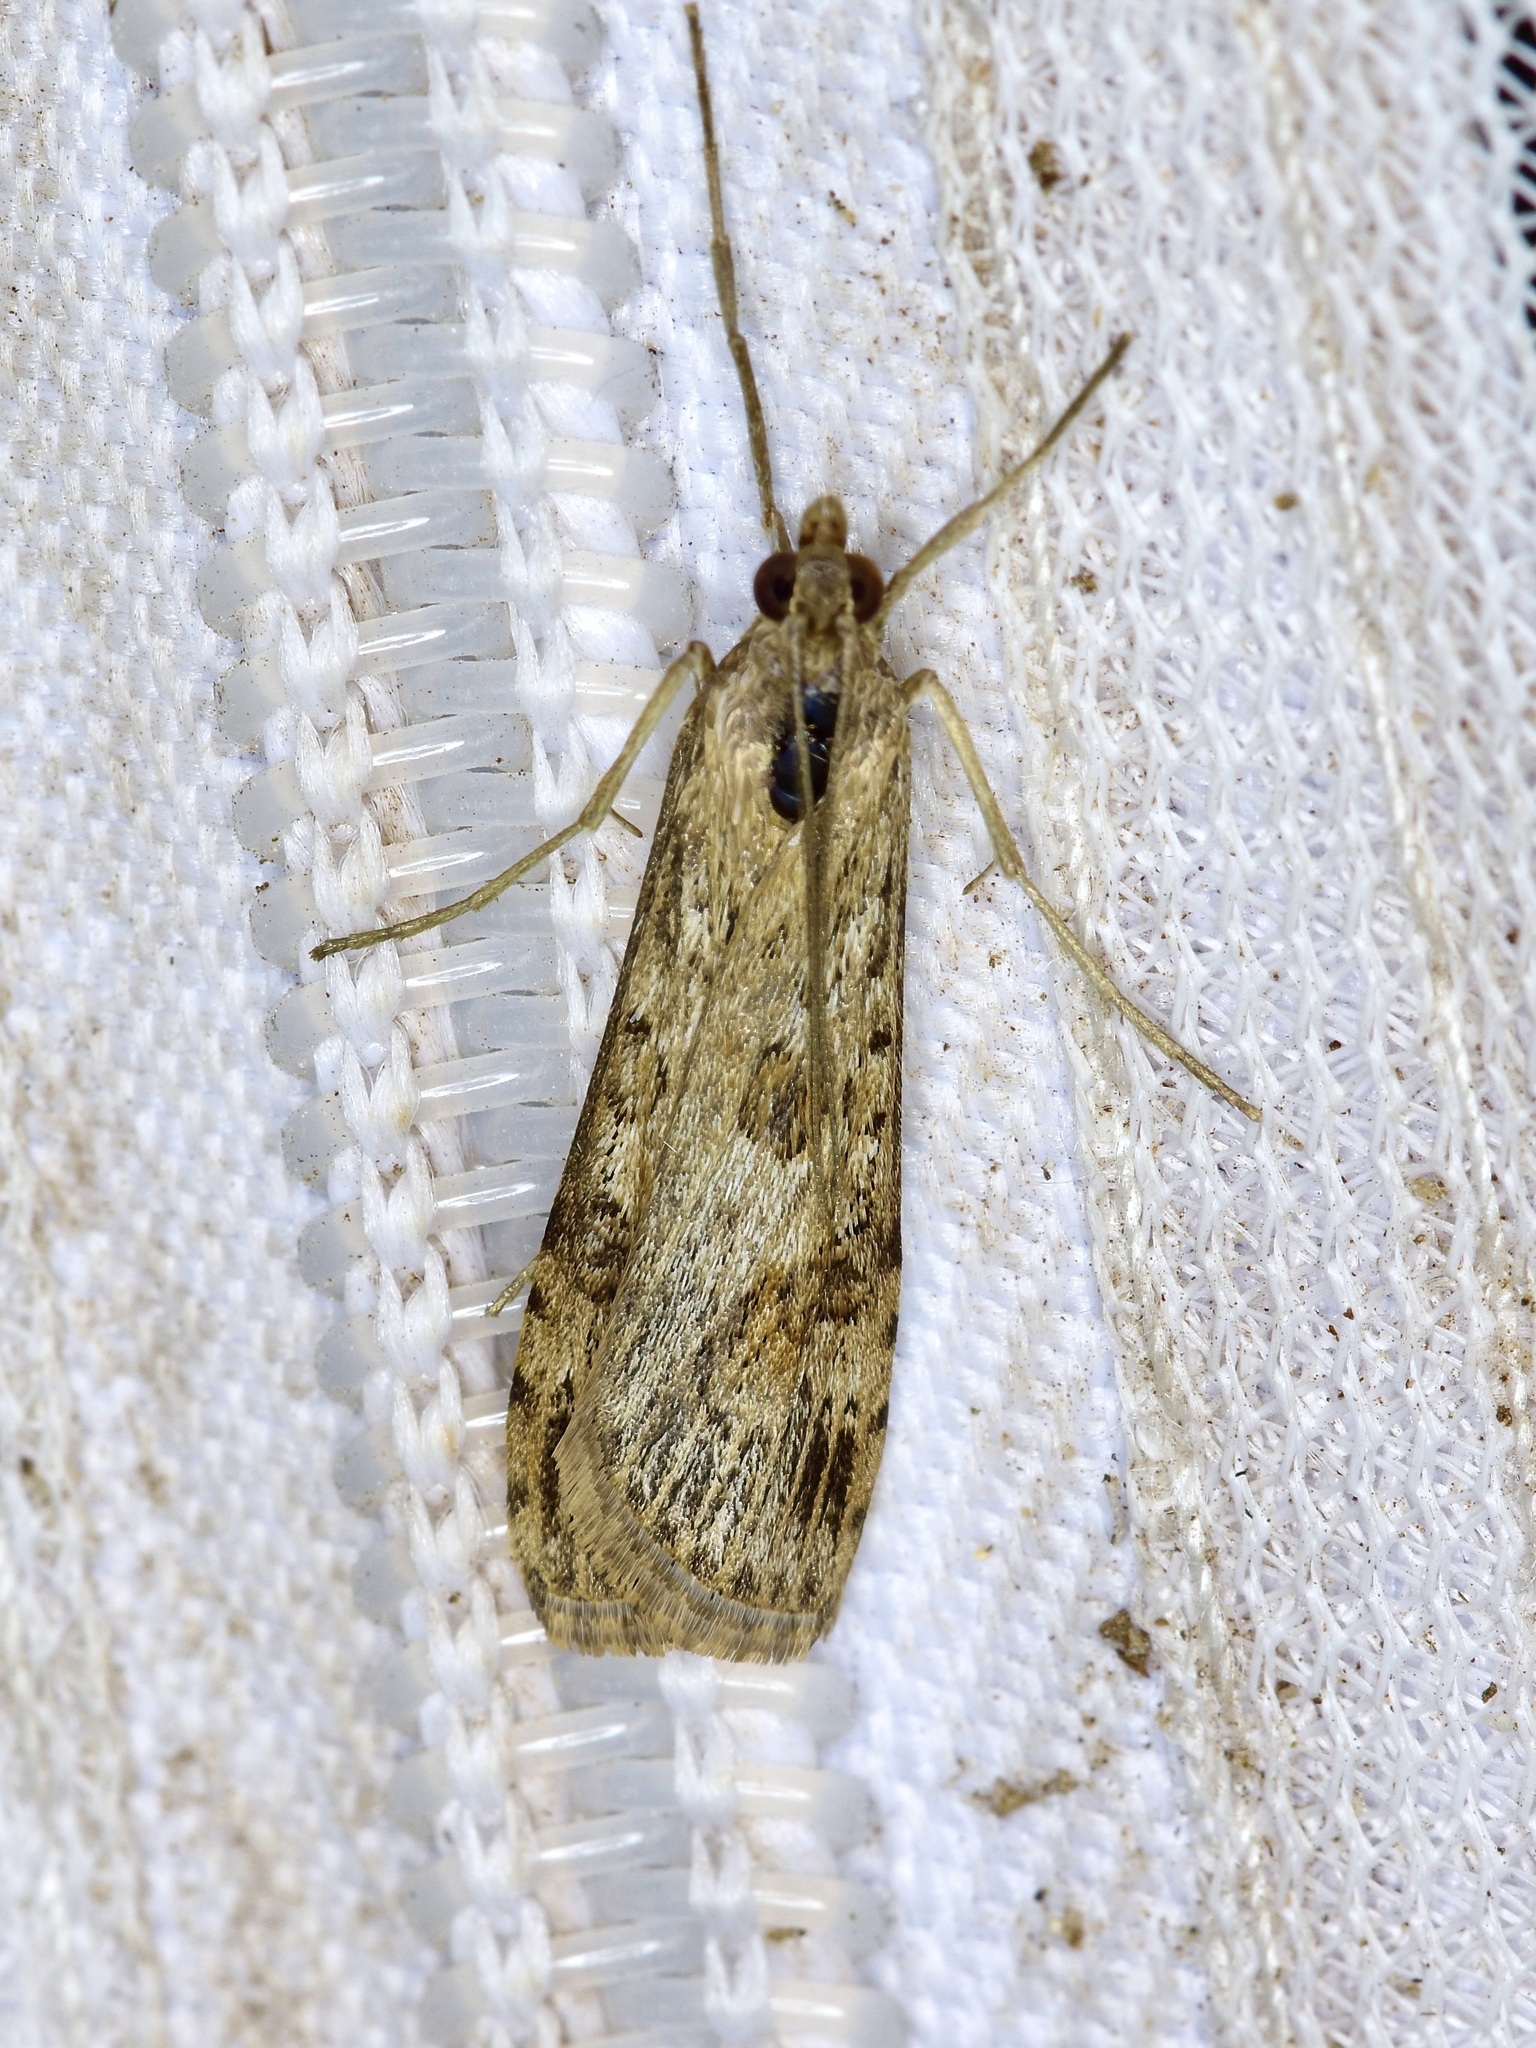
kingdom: Animalia
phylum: Arthropoda
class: Insecta
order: Lepidoptera
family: Crambidae
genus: Nomophila
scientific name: Nomophila nearctica
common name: American rush veneer
